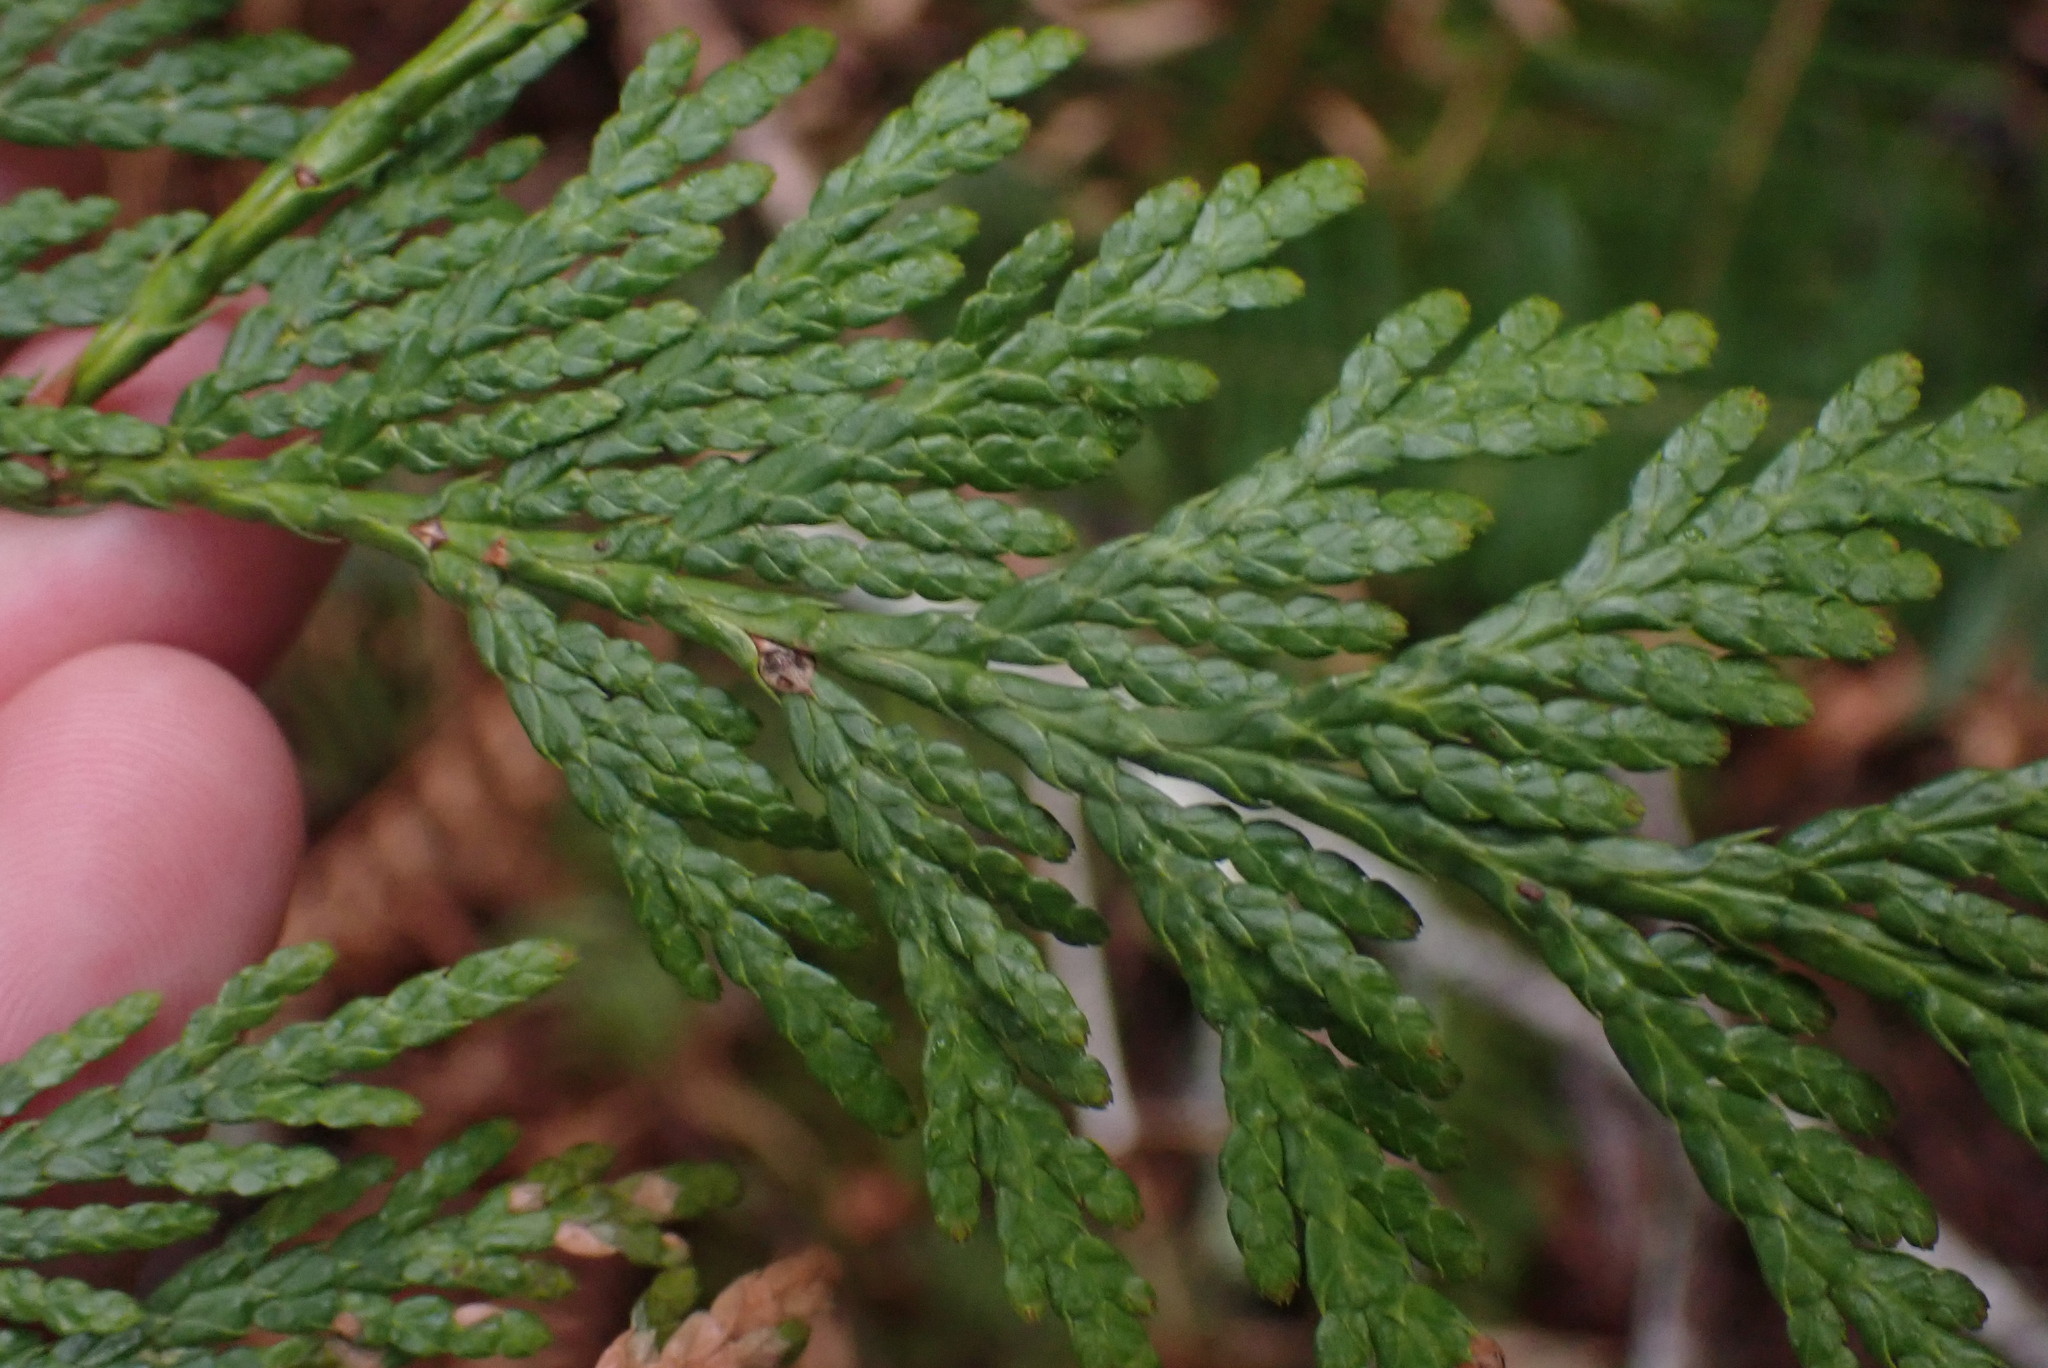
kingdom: Plantae
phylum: Tracheophyta
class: Pinopsida
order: Pinales
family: Cupressaceae
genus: Thuja
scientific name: Thuja plicata
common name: Western red-cedar
